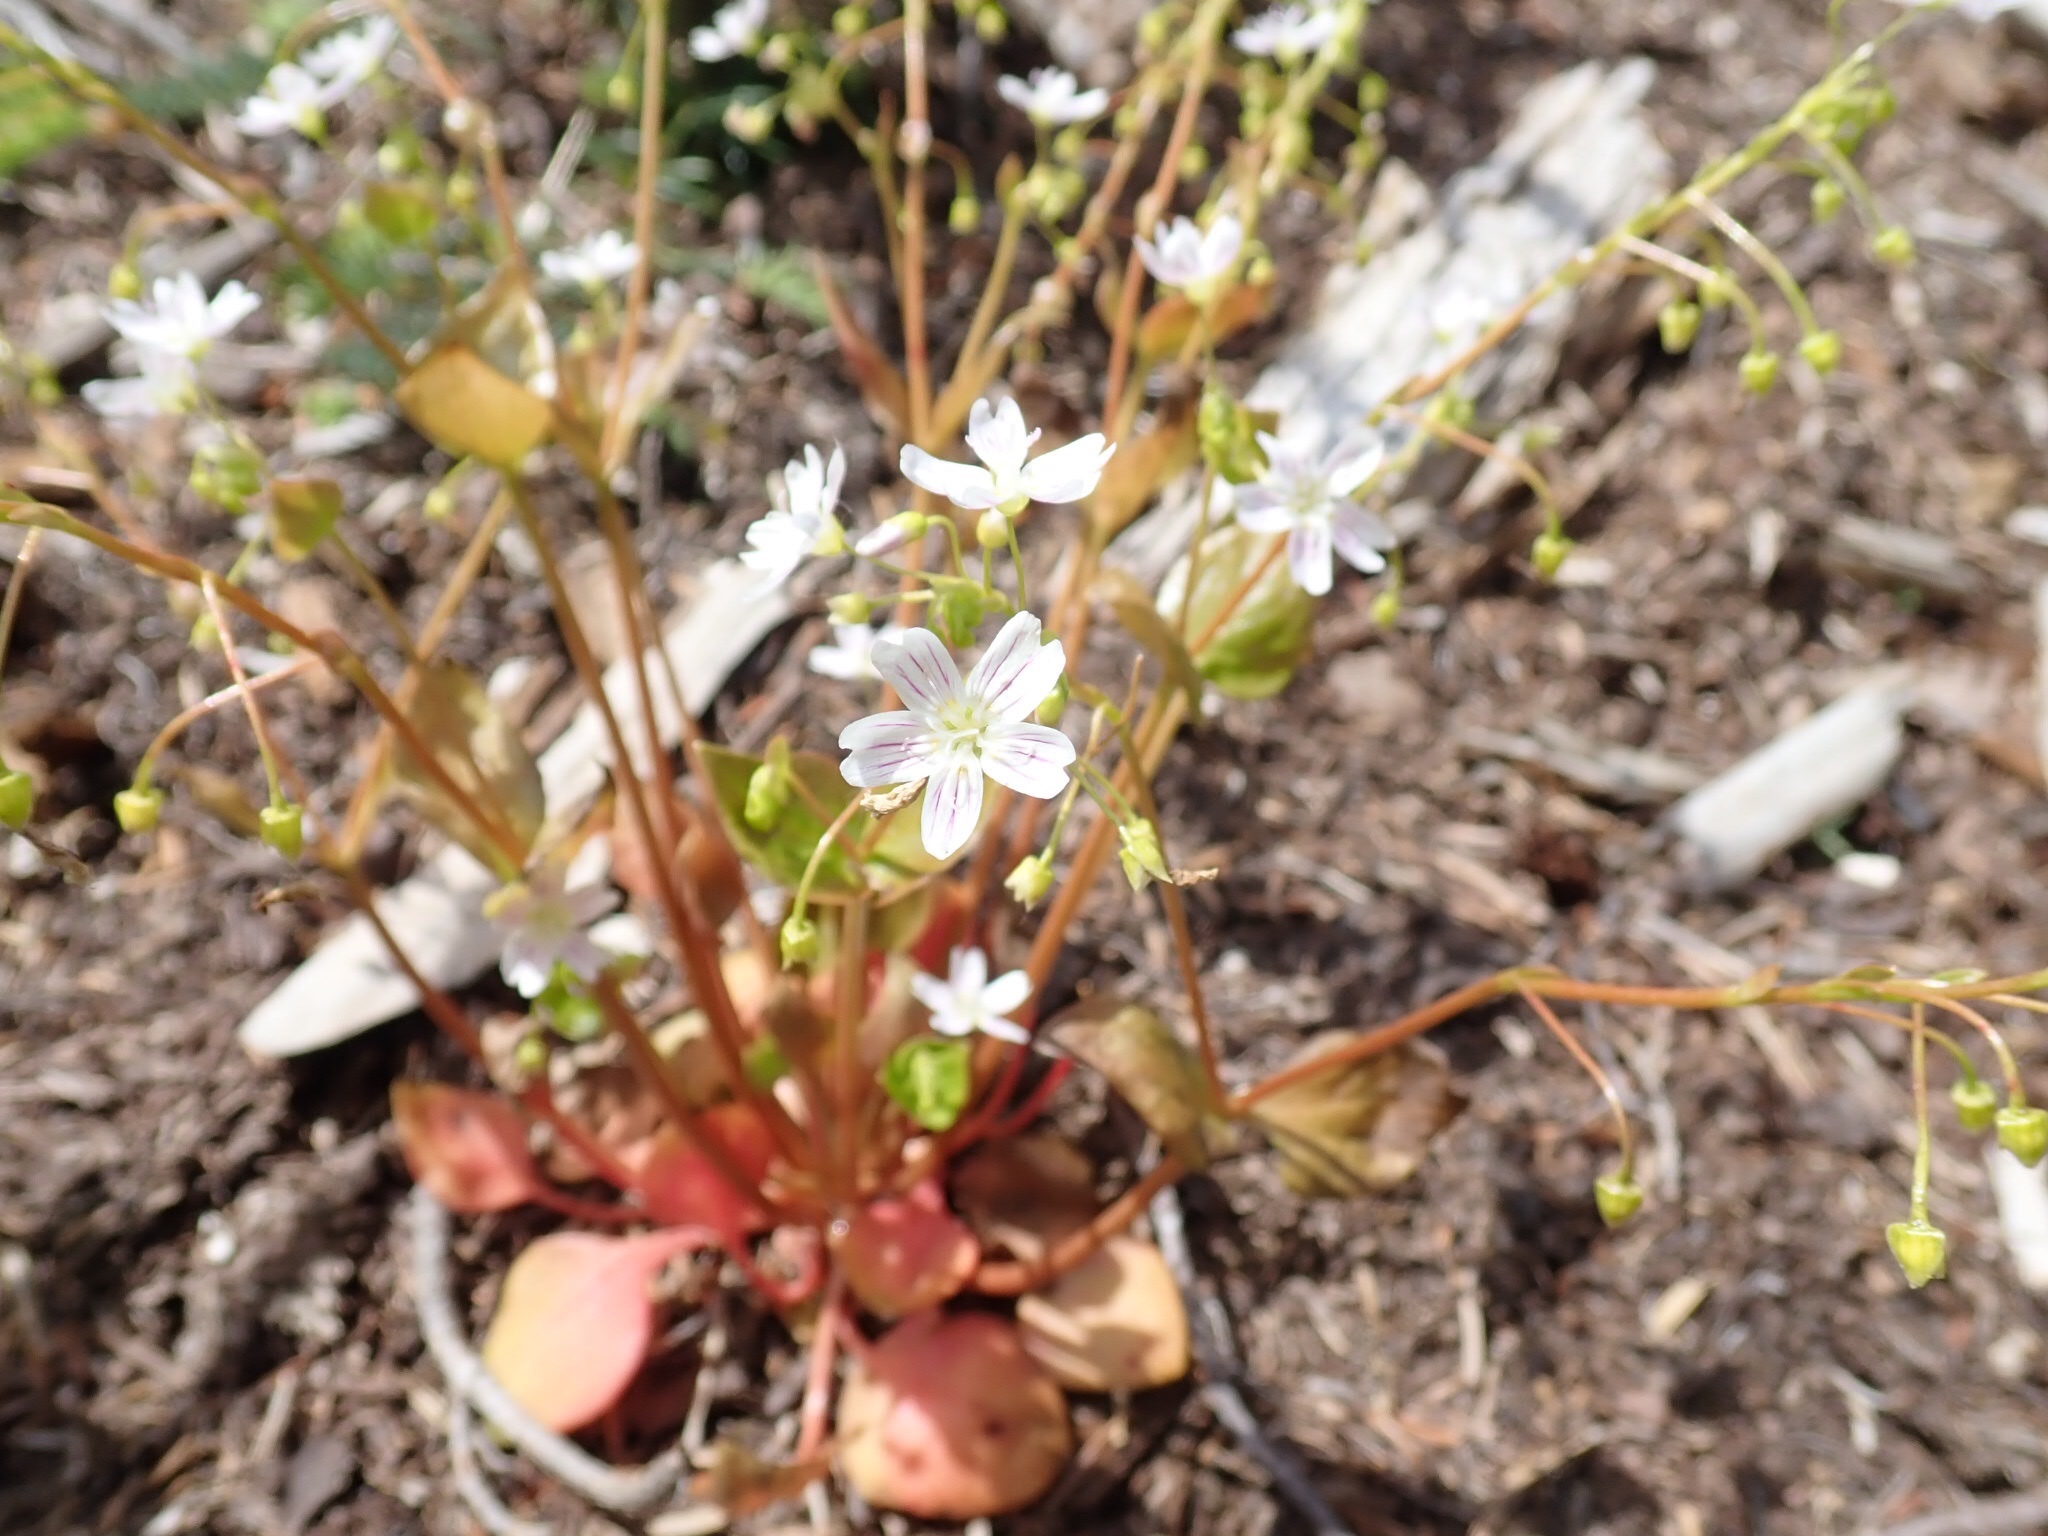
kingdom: Plantae
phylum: Tracheophyta
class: Magnoliopsida
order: Caryophyllales
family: Montiaceae
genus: Claytonia
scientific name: Claytonia sibirica
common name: Pink purslane
